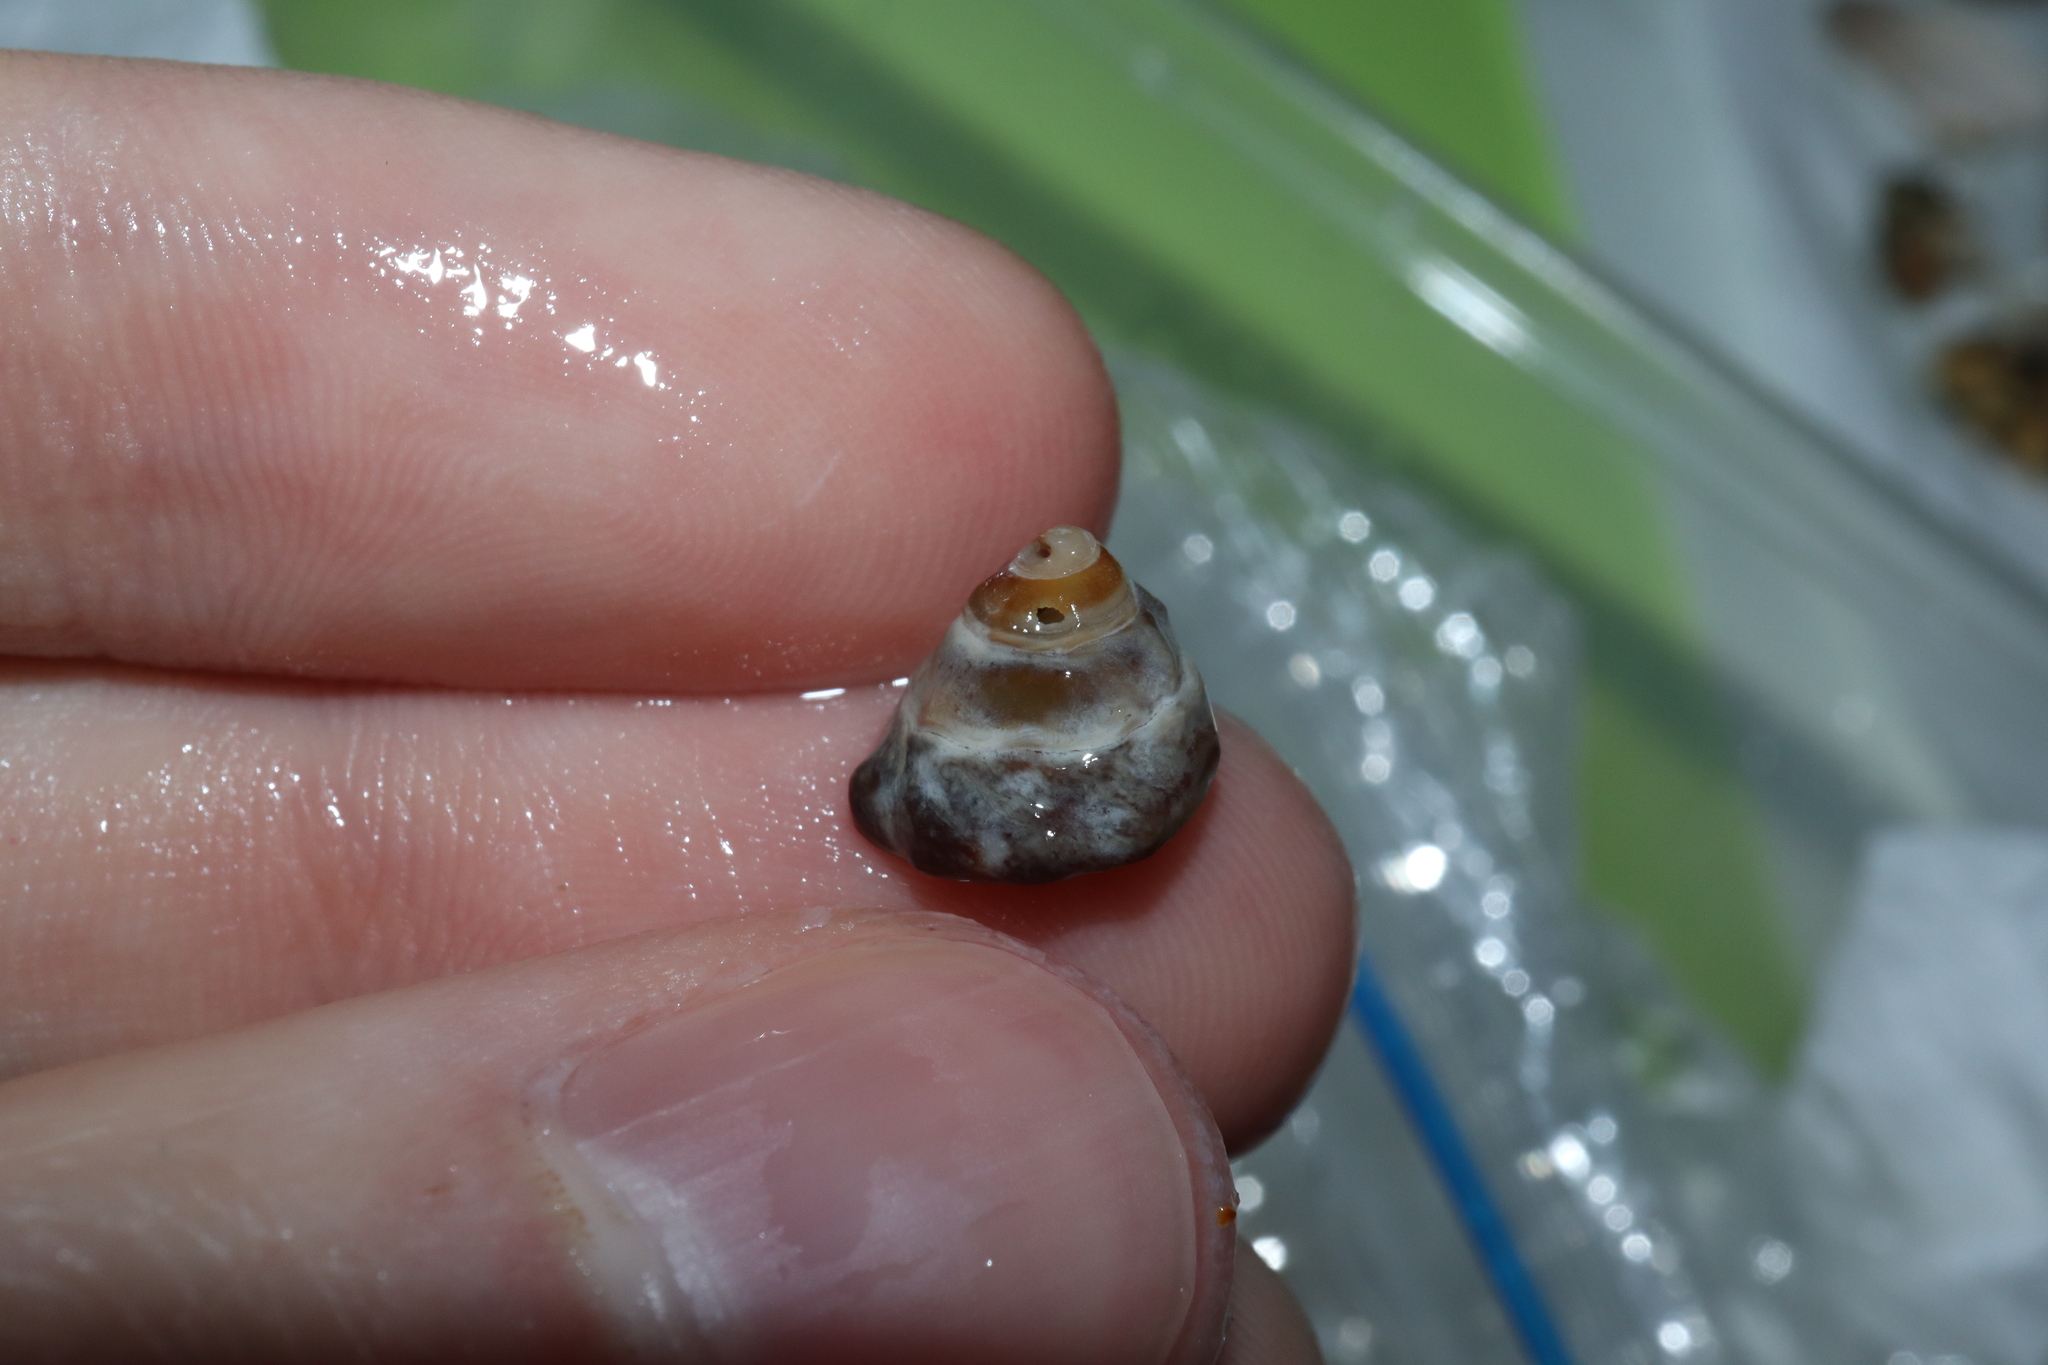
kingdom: Animalia
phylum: Mollusca
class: Gastropoda
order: Littorinimorpha
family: Littorinidae
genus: Bembicium
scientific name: Bembicium auratum
